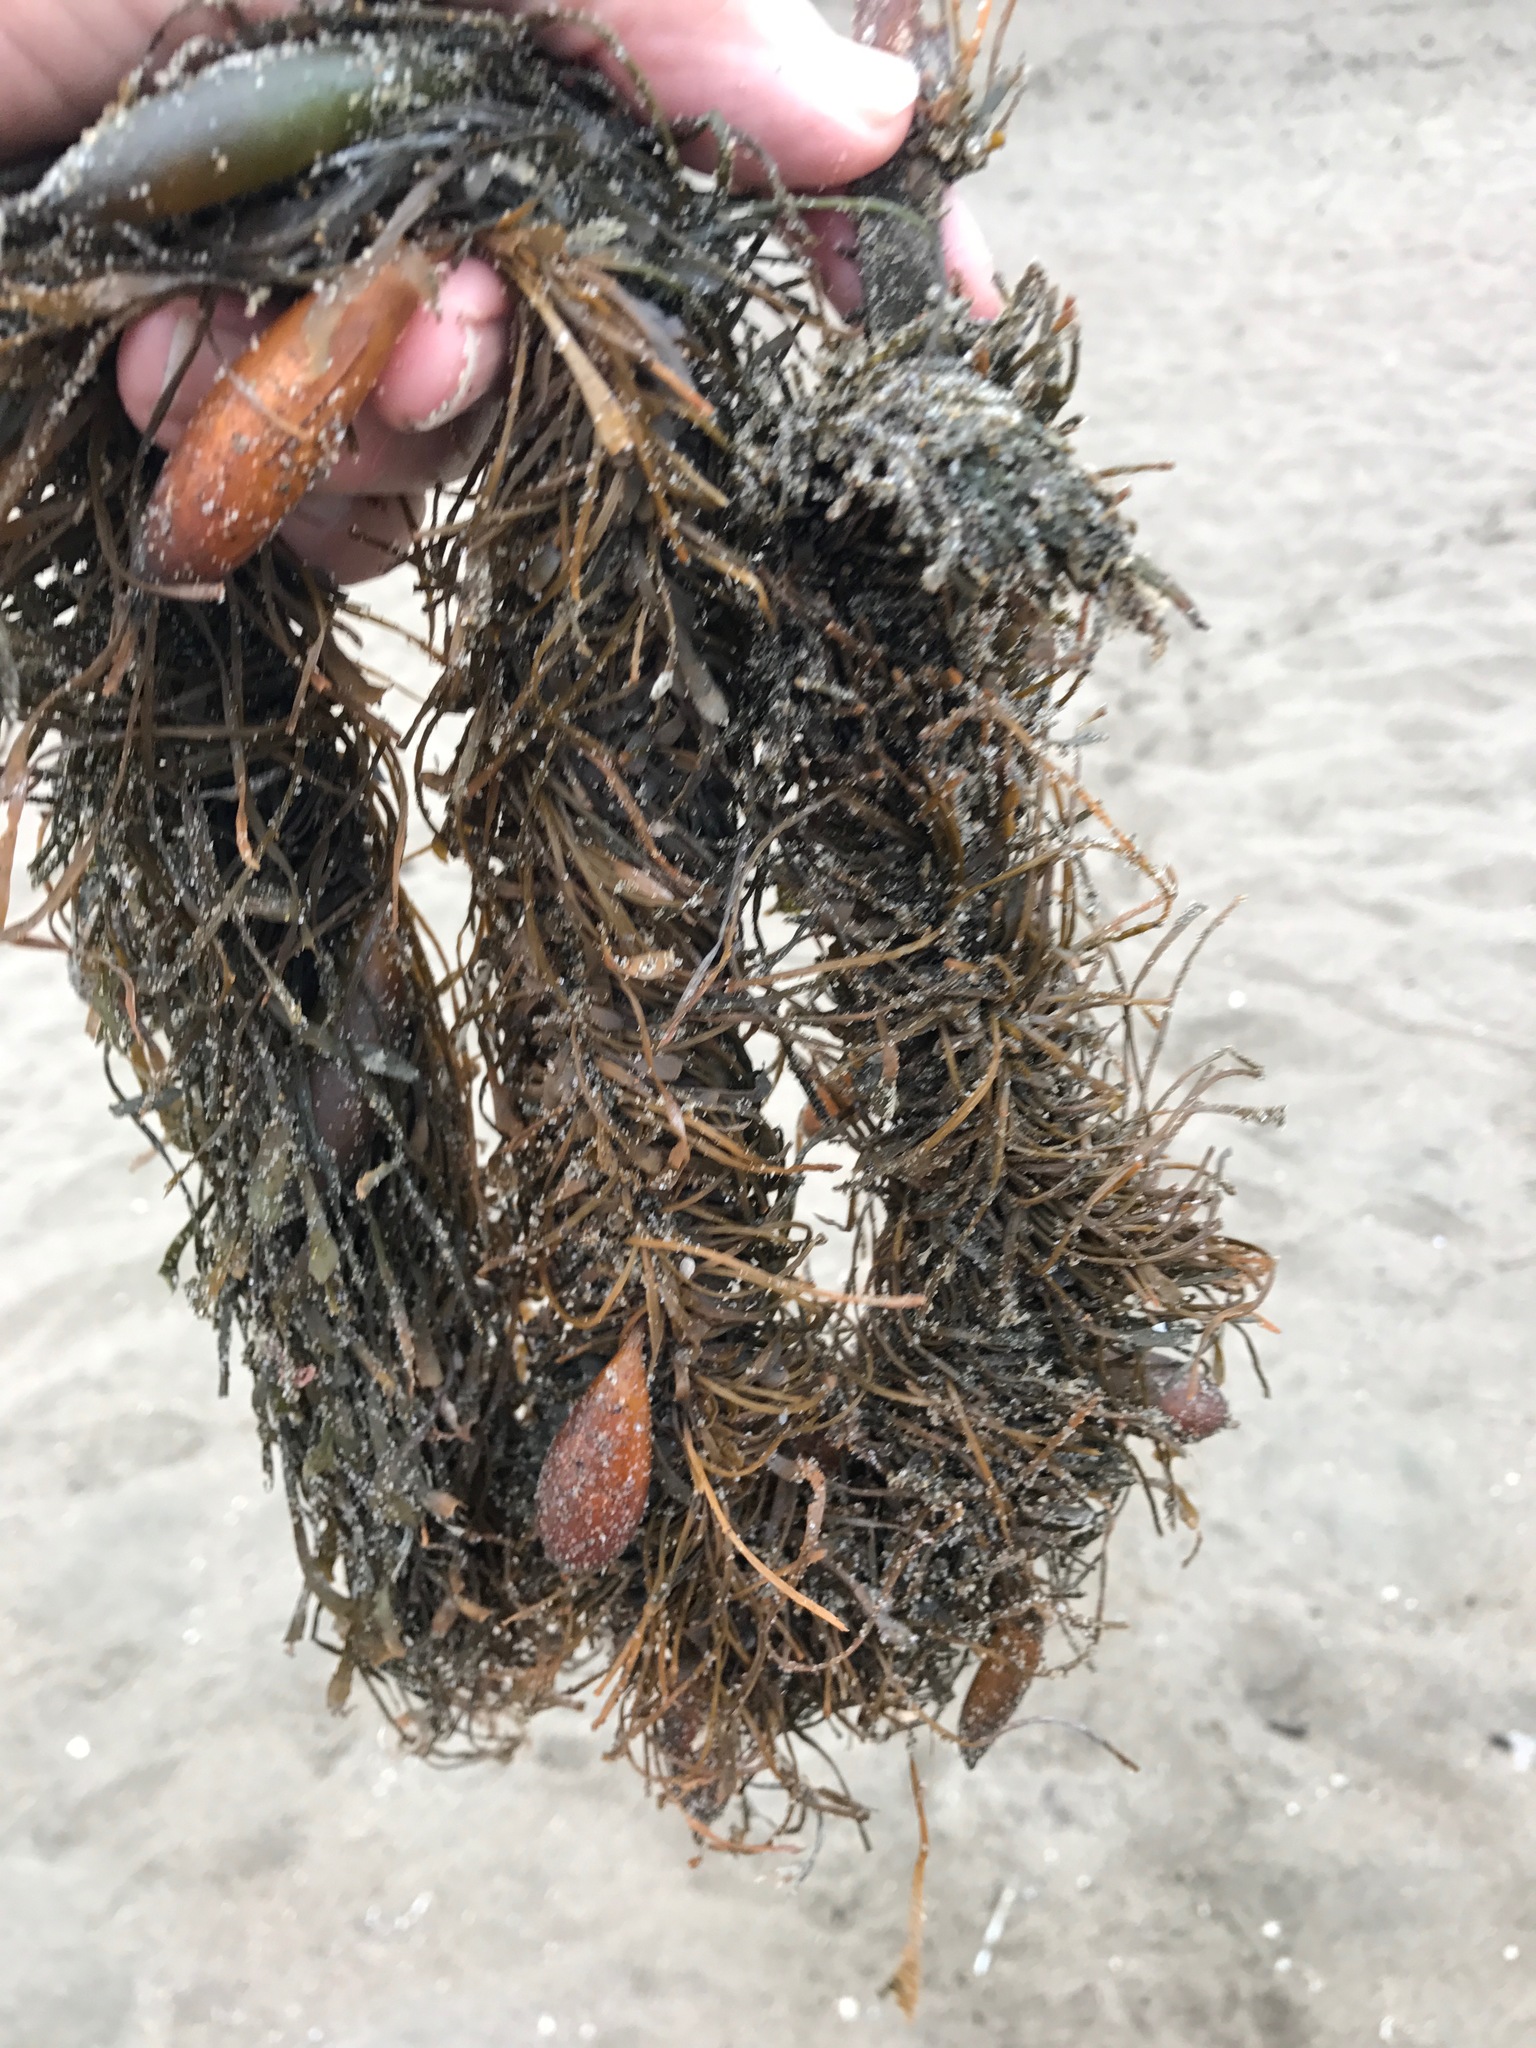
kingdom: Chromista
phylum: Ochrophyta
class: Phaeophyceae
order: Laminariales
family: Lessoniaceae
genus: Egregia
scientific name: Egregia menziesii
